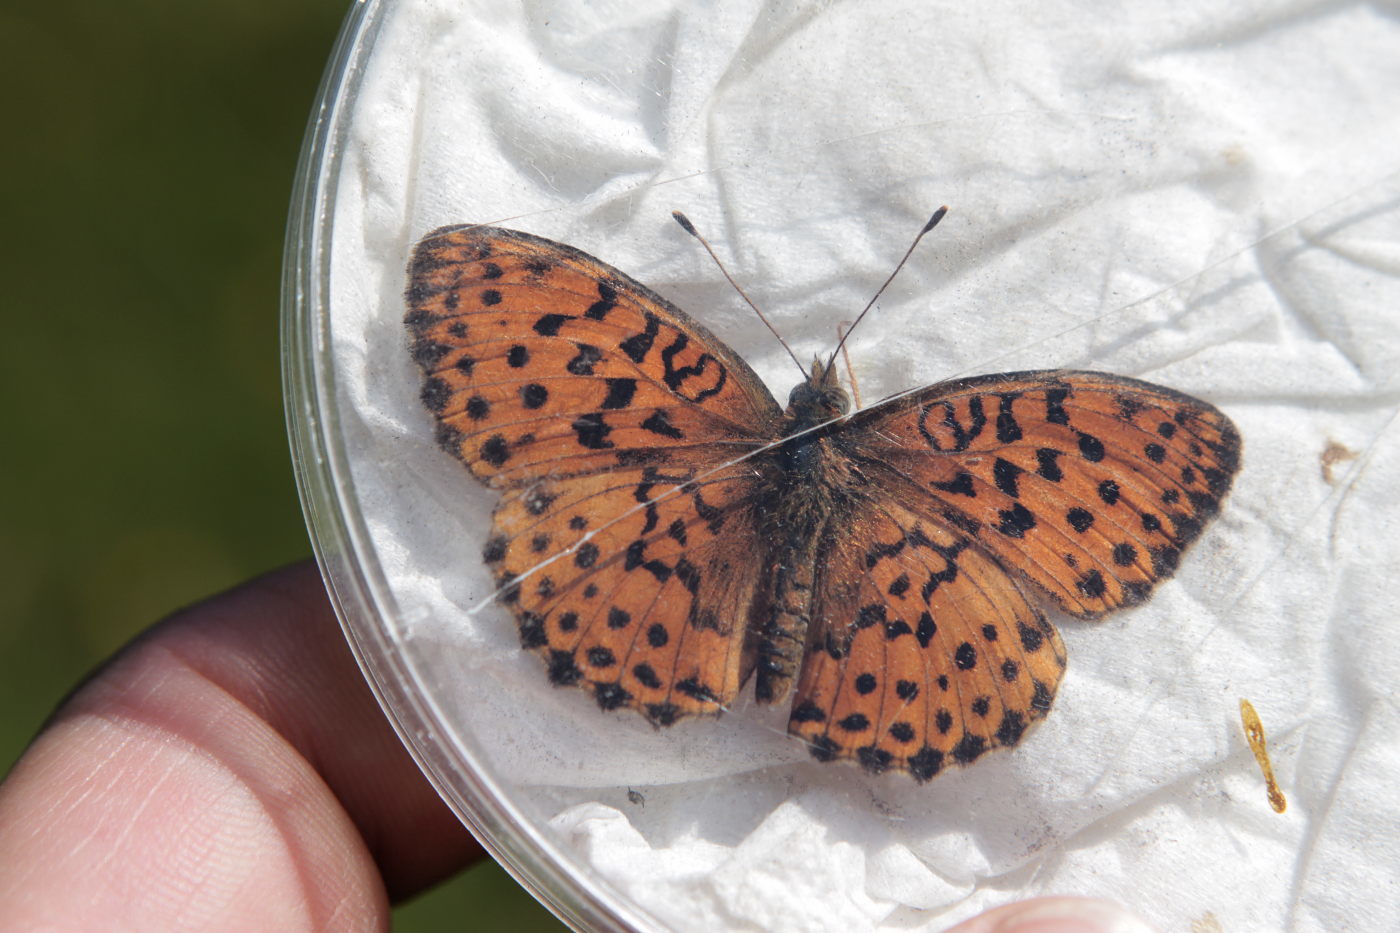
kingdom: Animalia
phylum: Arthropoda
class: Insecta
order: Lepidoptera
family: Nymphalidae
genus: Brenthis
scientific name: Brenthis daphne
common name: Marbled fritillary
